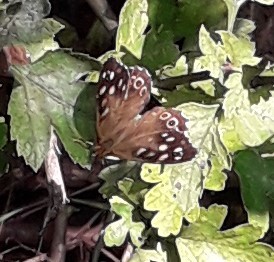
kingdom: Animalia
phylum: Arthropoda
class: Insecta
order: Lepidoptera
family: Nymphalidae
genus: Pararge
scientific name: Pararge aegeria
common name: Speckled wood
